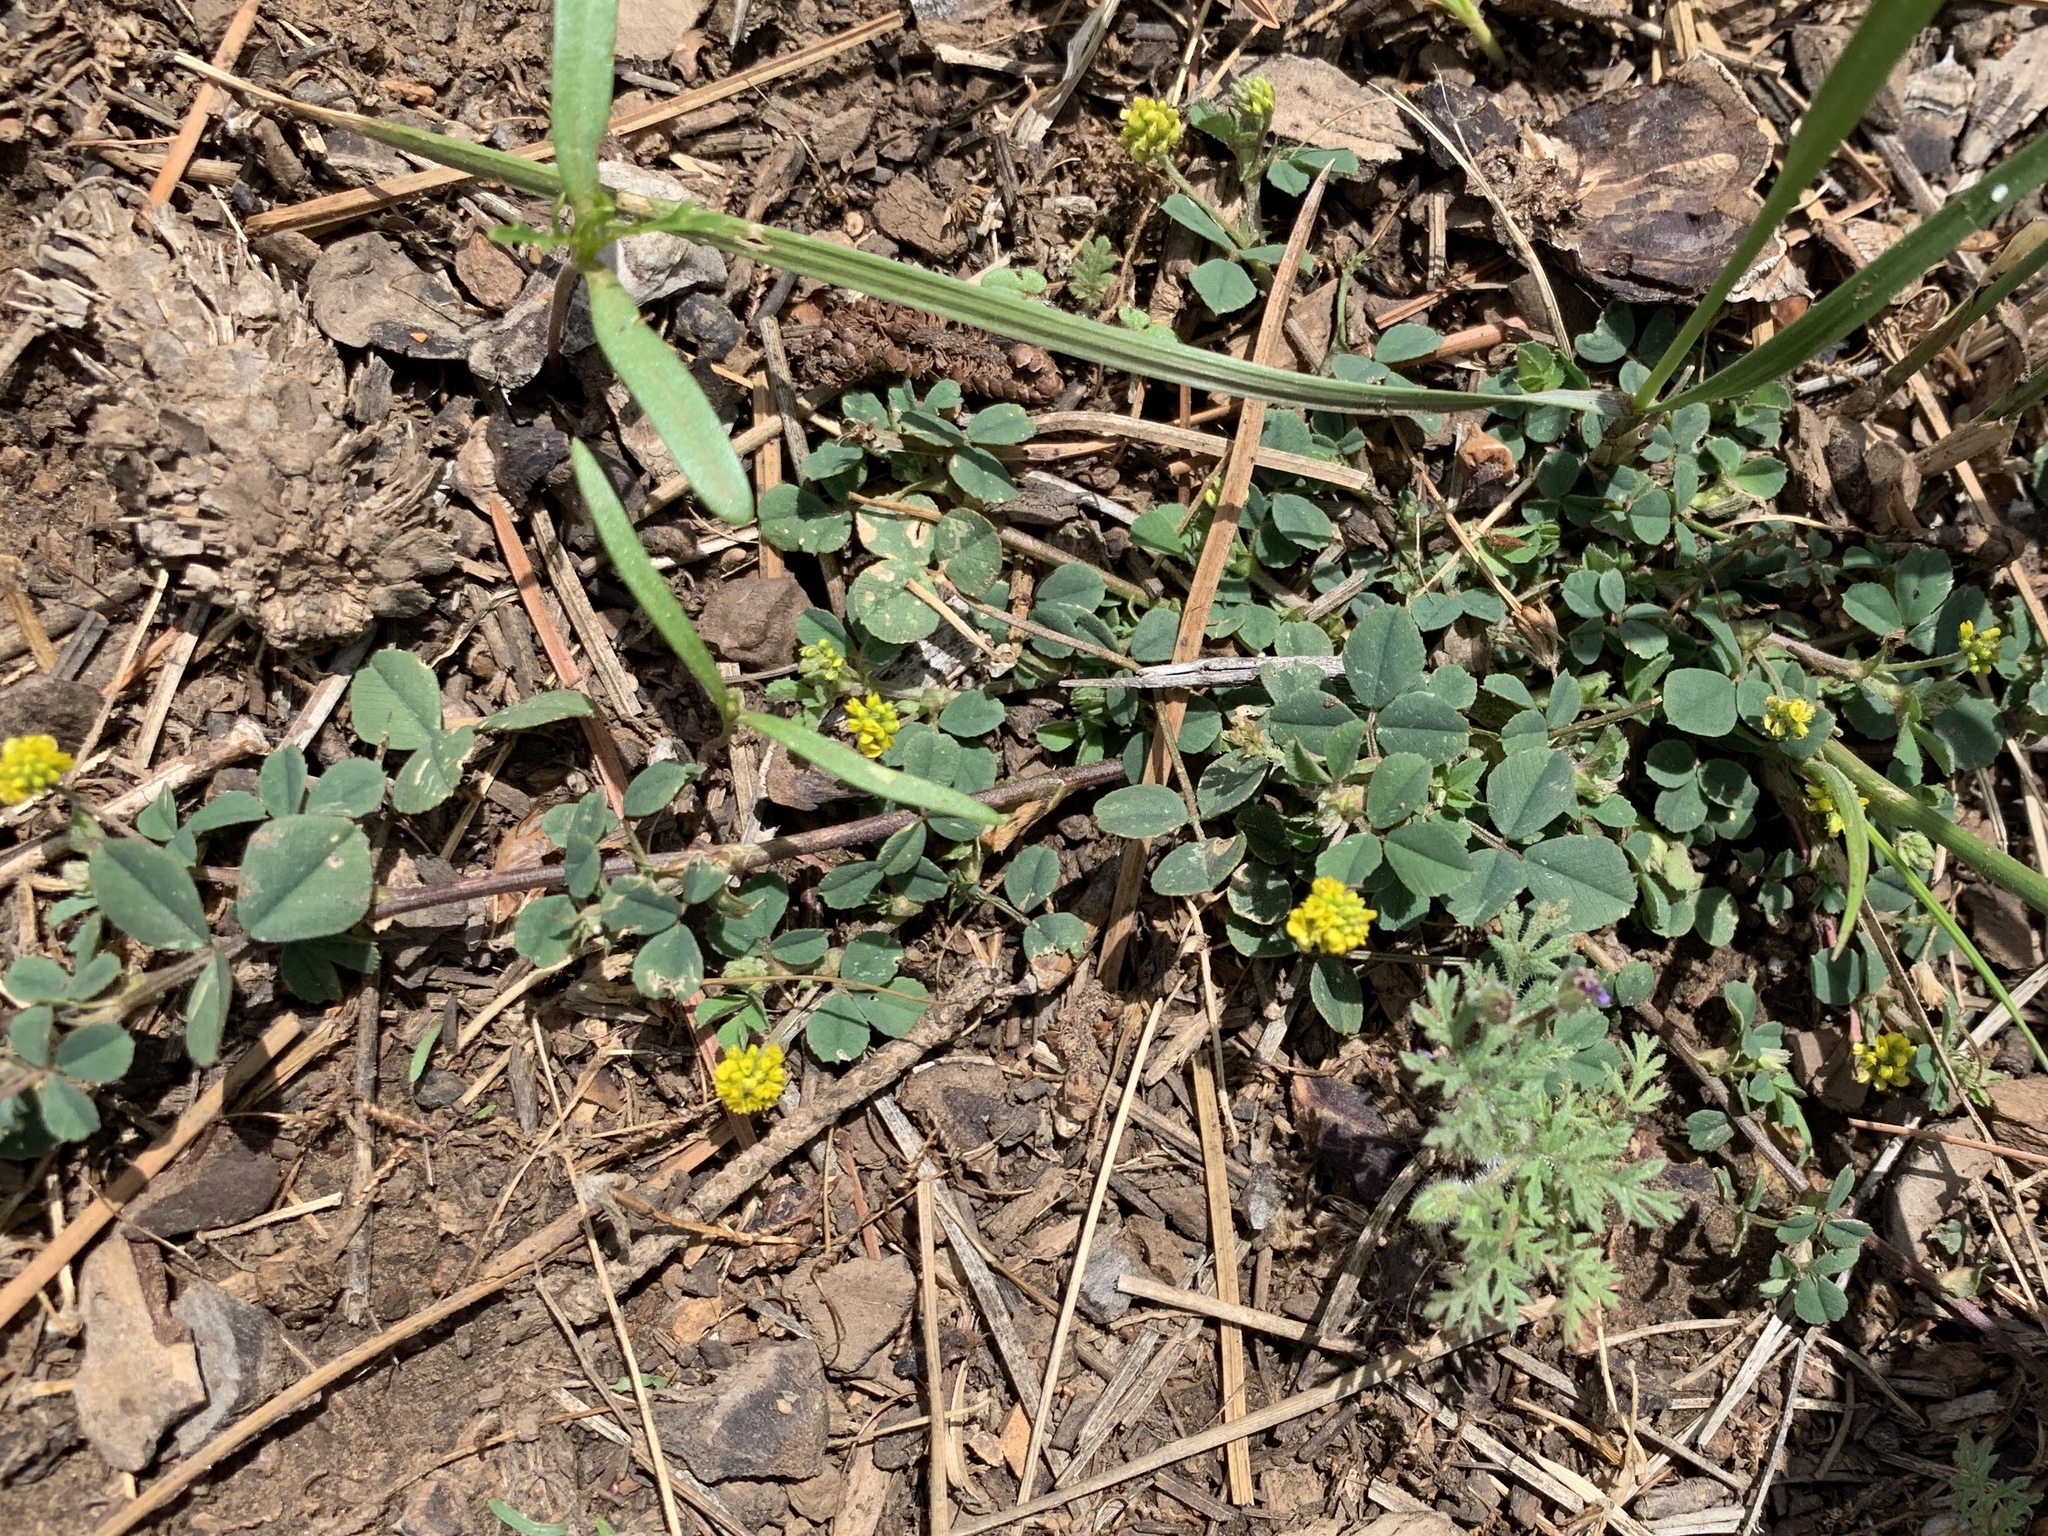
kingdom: Plantae
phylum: Tracheophyta
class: Magnoliopsida
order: Fabales
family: Fabaceae
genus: Medicago
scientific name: Medicago lupulina
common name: Black medick
